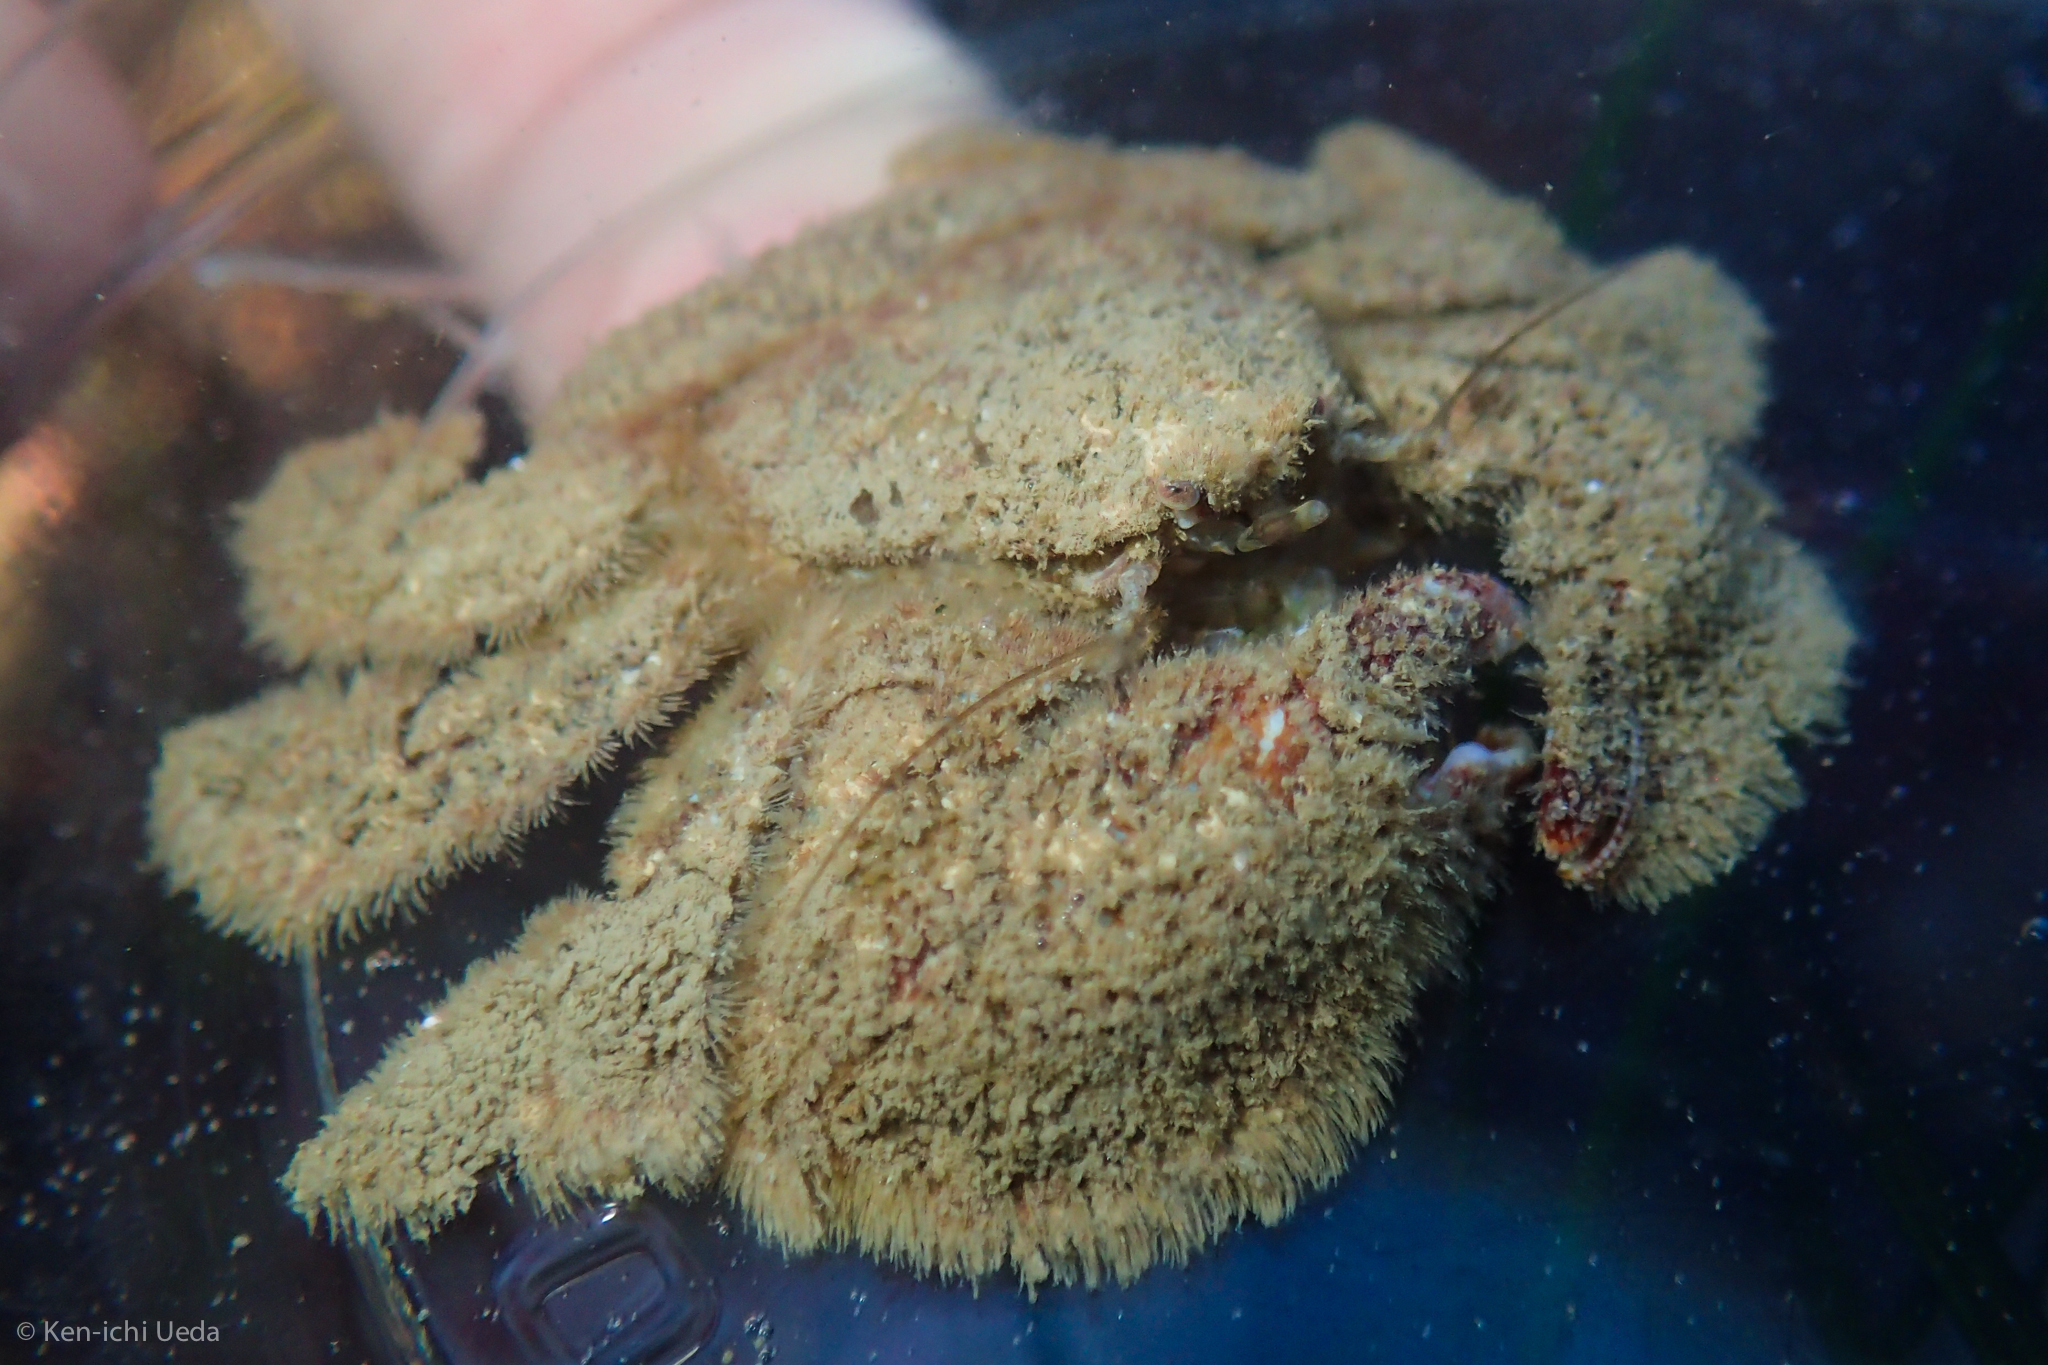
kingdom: Animalia
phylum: Arthropoda
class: Malacostraca
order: Decapoda
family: Hapalogastridae
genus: Hapalogaster
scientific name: Hapalogaster cavicauda
